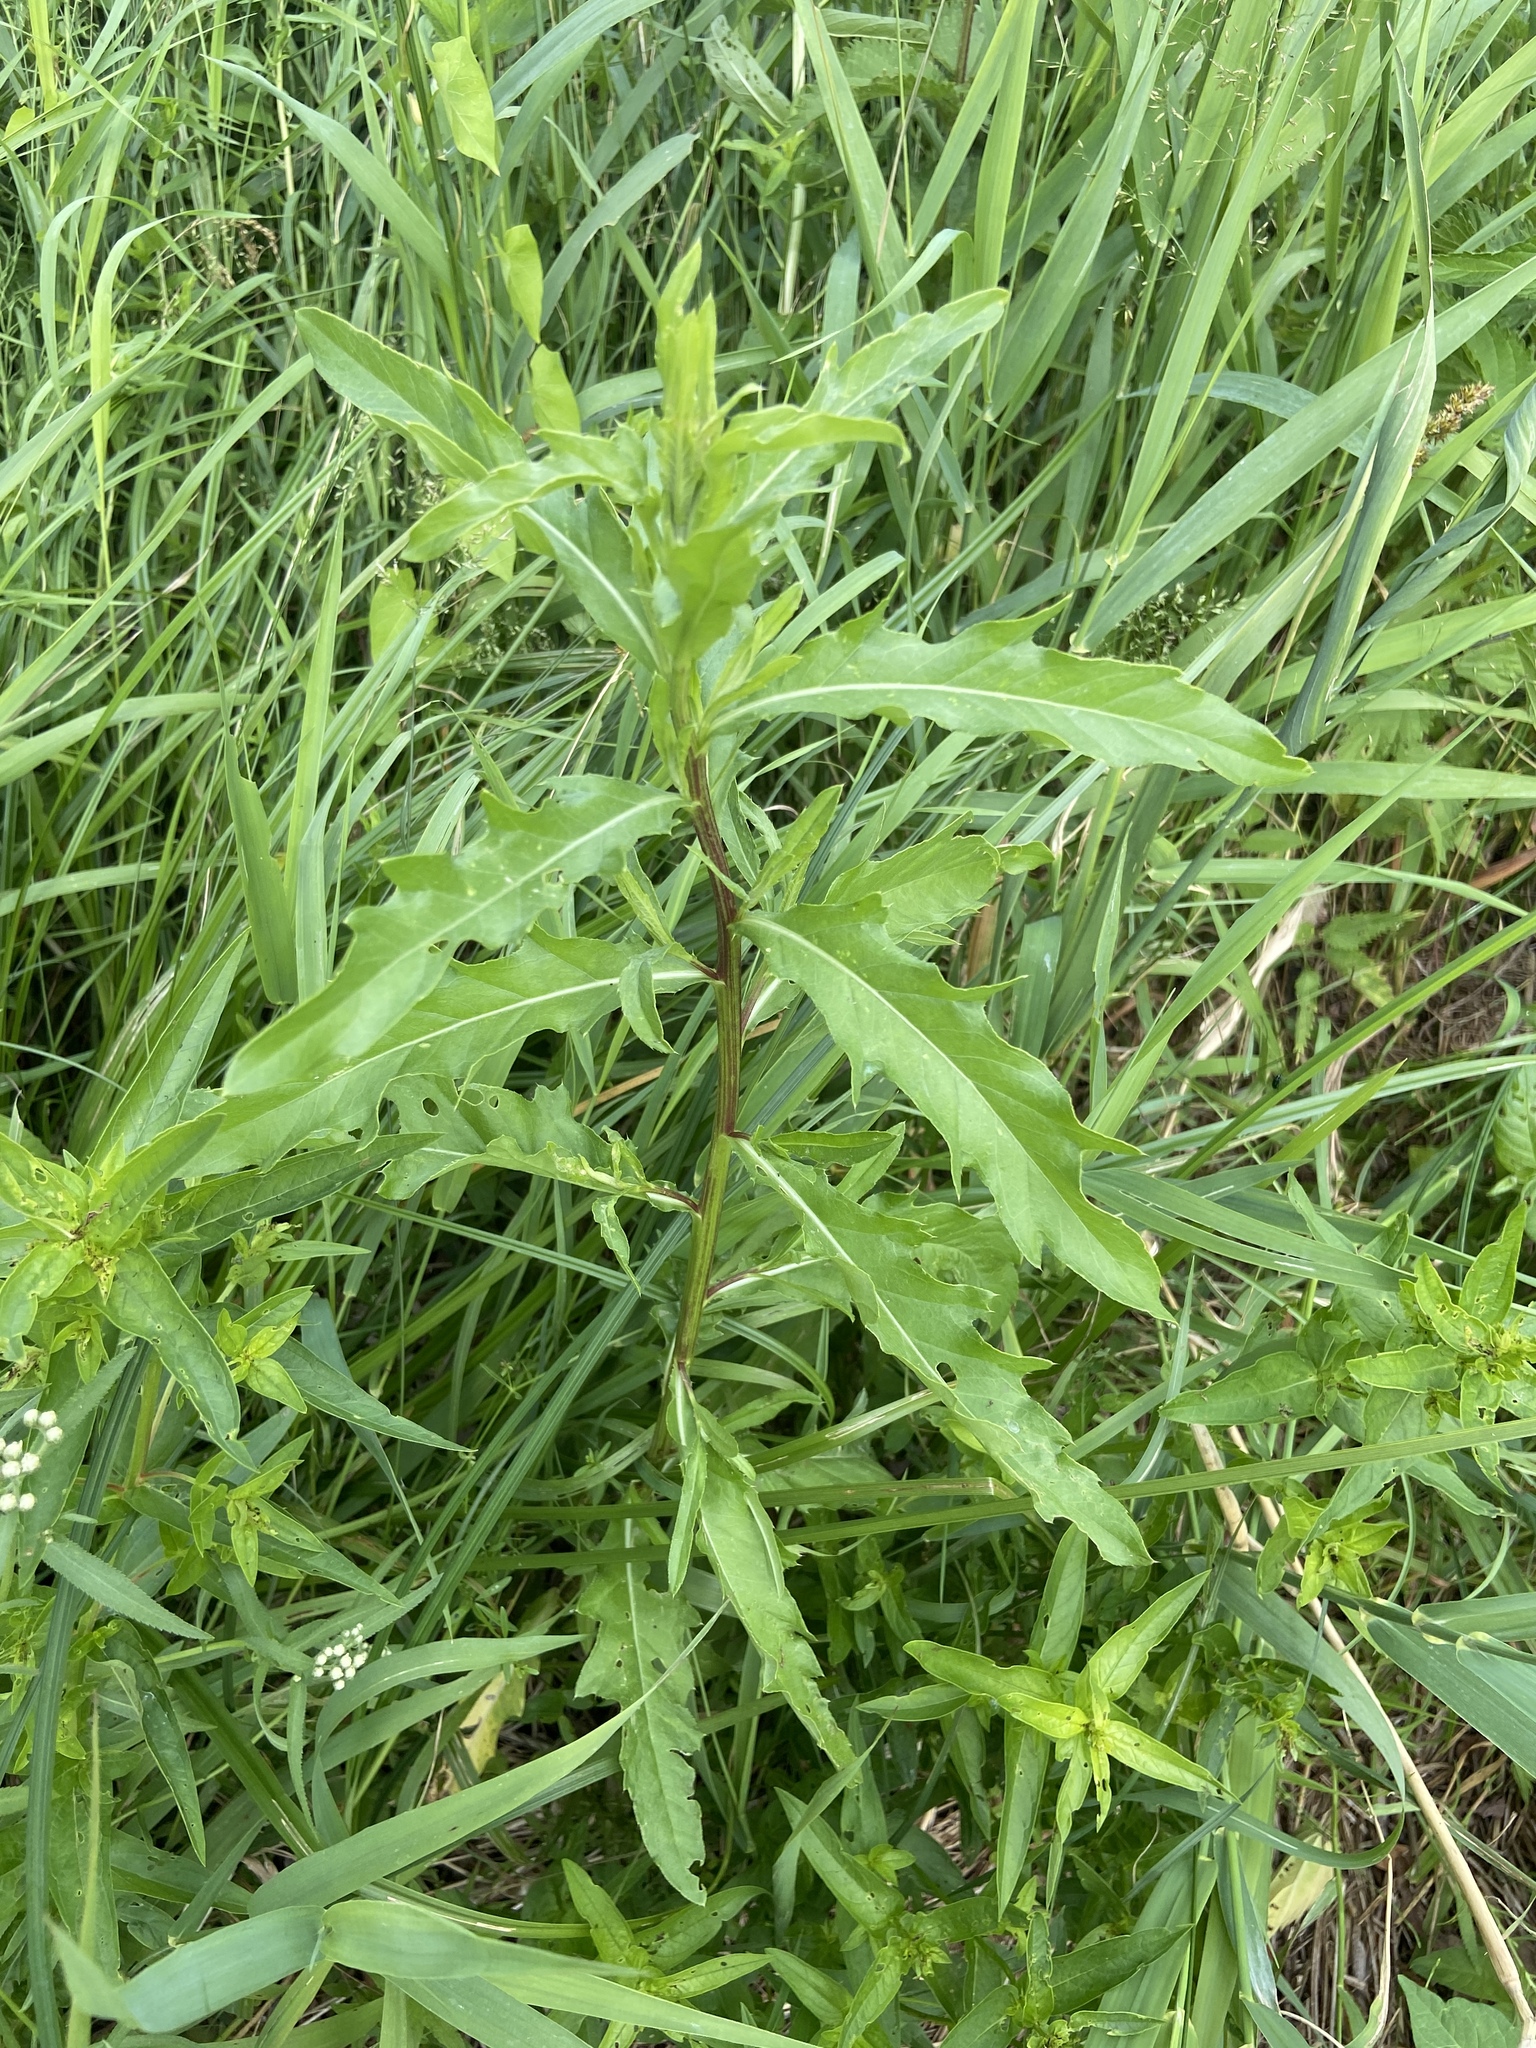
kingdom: Plantae
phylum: Tracheophyta
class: Magnoliopsida
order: Asterales
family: Asteraceae
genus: Cirsium
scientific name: Cirsium arvense
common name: Creeping thistle
